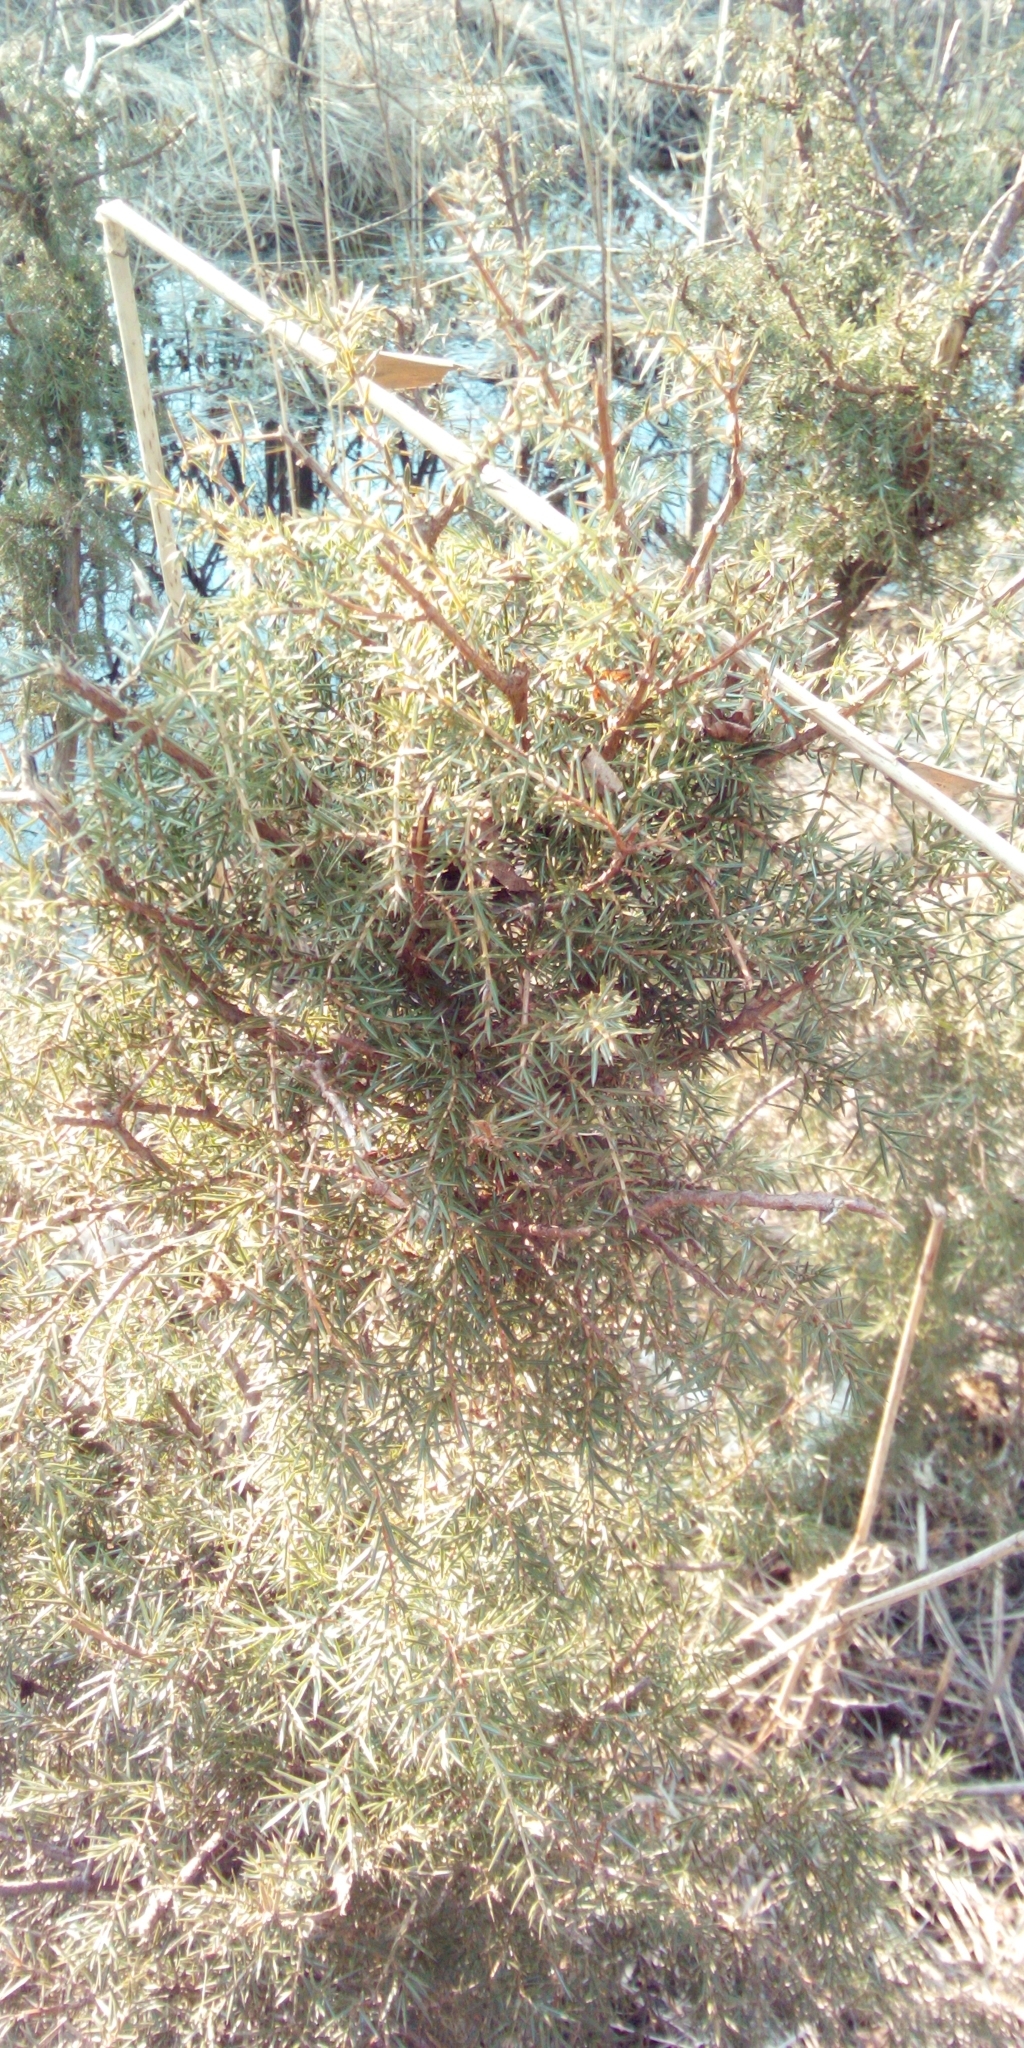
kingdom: Plantae
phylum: Tracheophyta
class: Pinopsida
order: Pinales
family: Cupressaceae
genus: Juniperus
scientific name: Juniperus communis
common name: Common juniper
